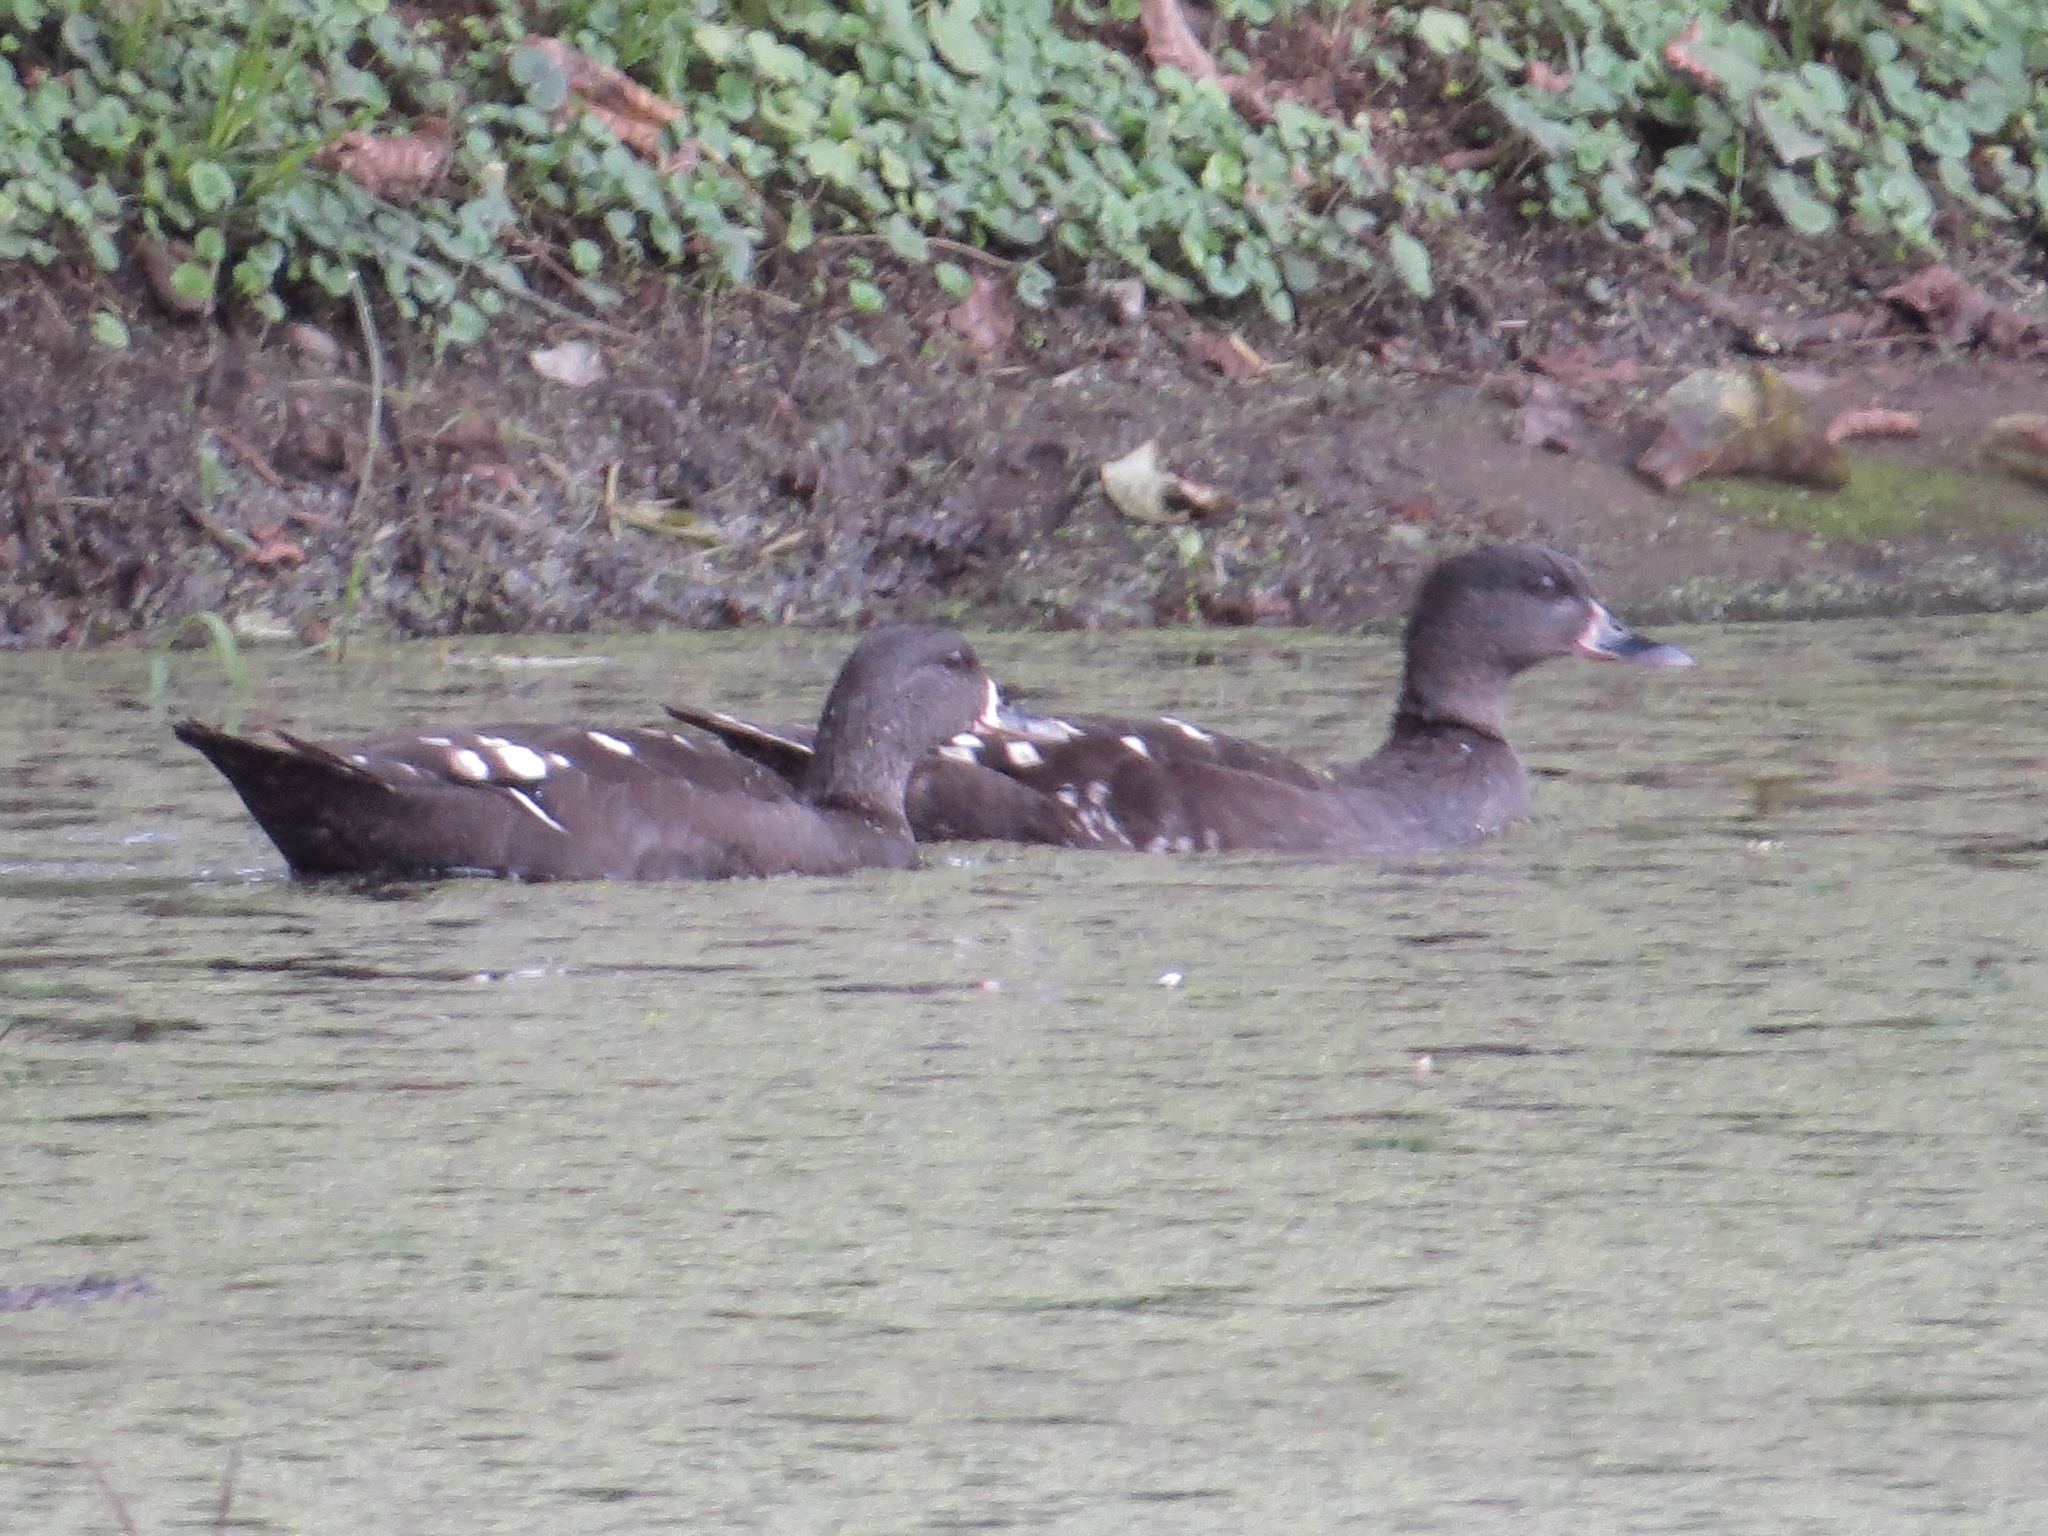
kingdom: Animalia
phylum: Chordata
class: Aves
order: Anseriformes
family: Anatidae
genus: Anas
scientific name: Anas sparsa
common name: African black duck
